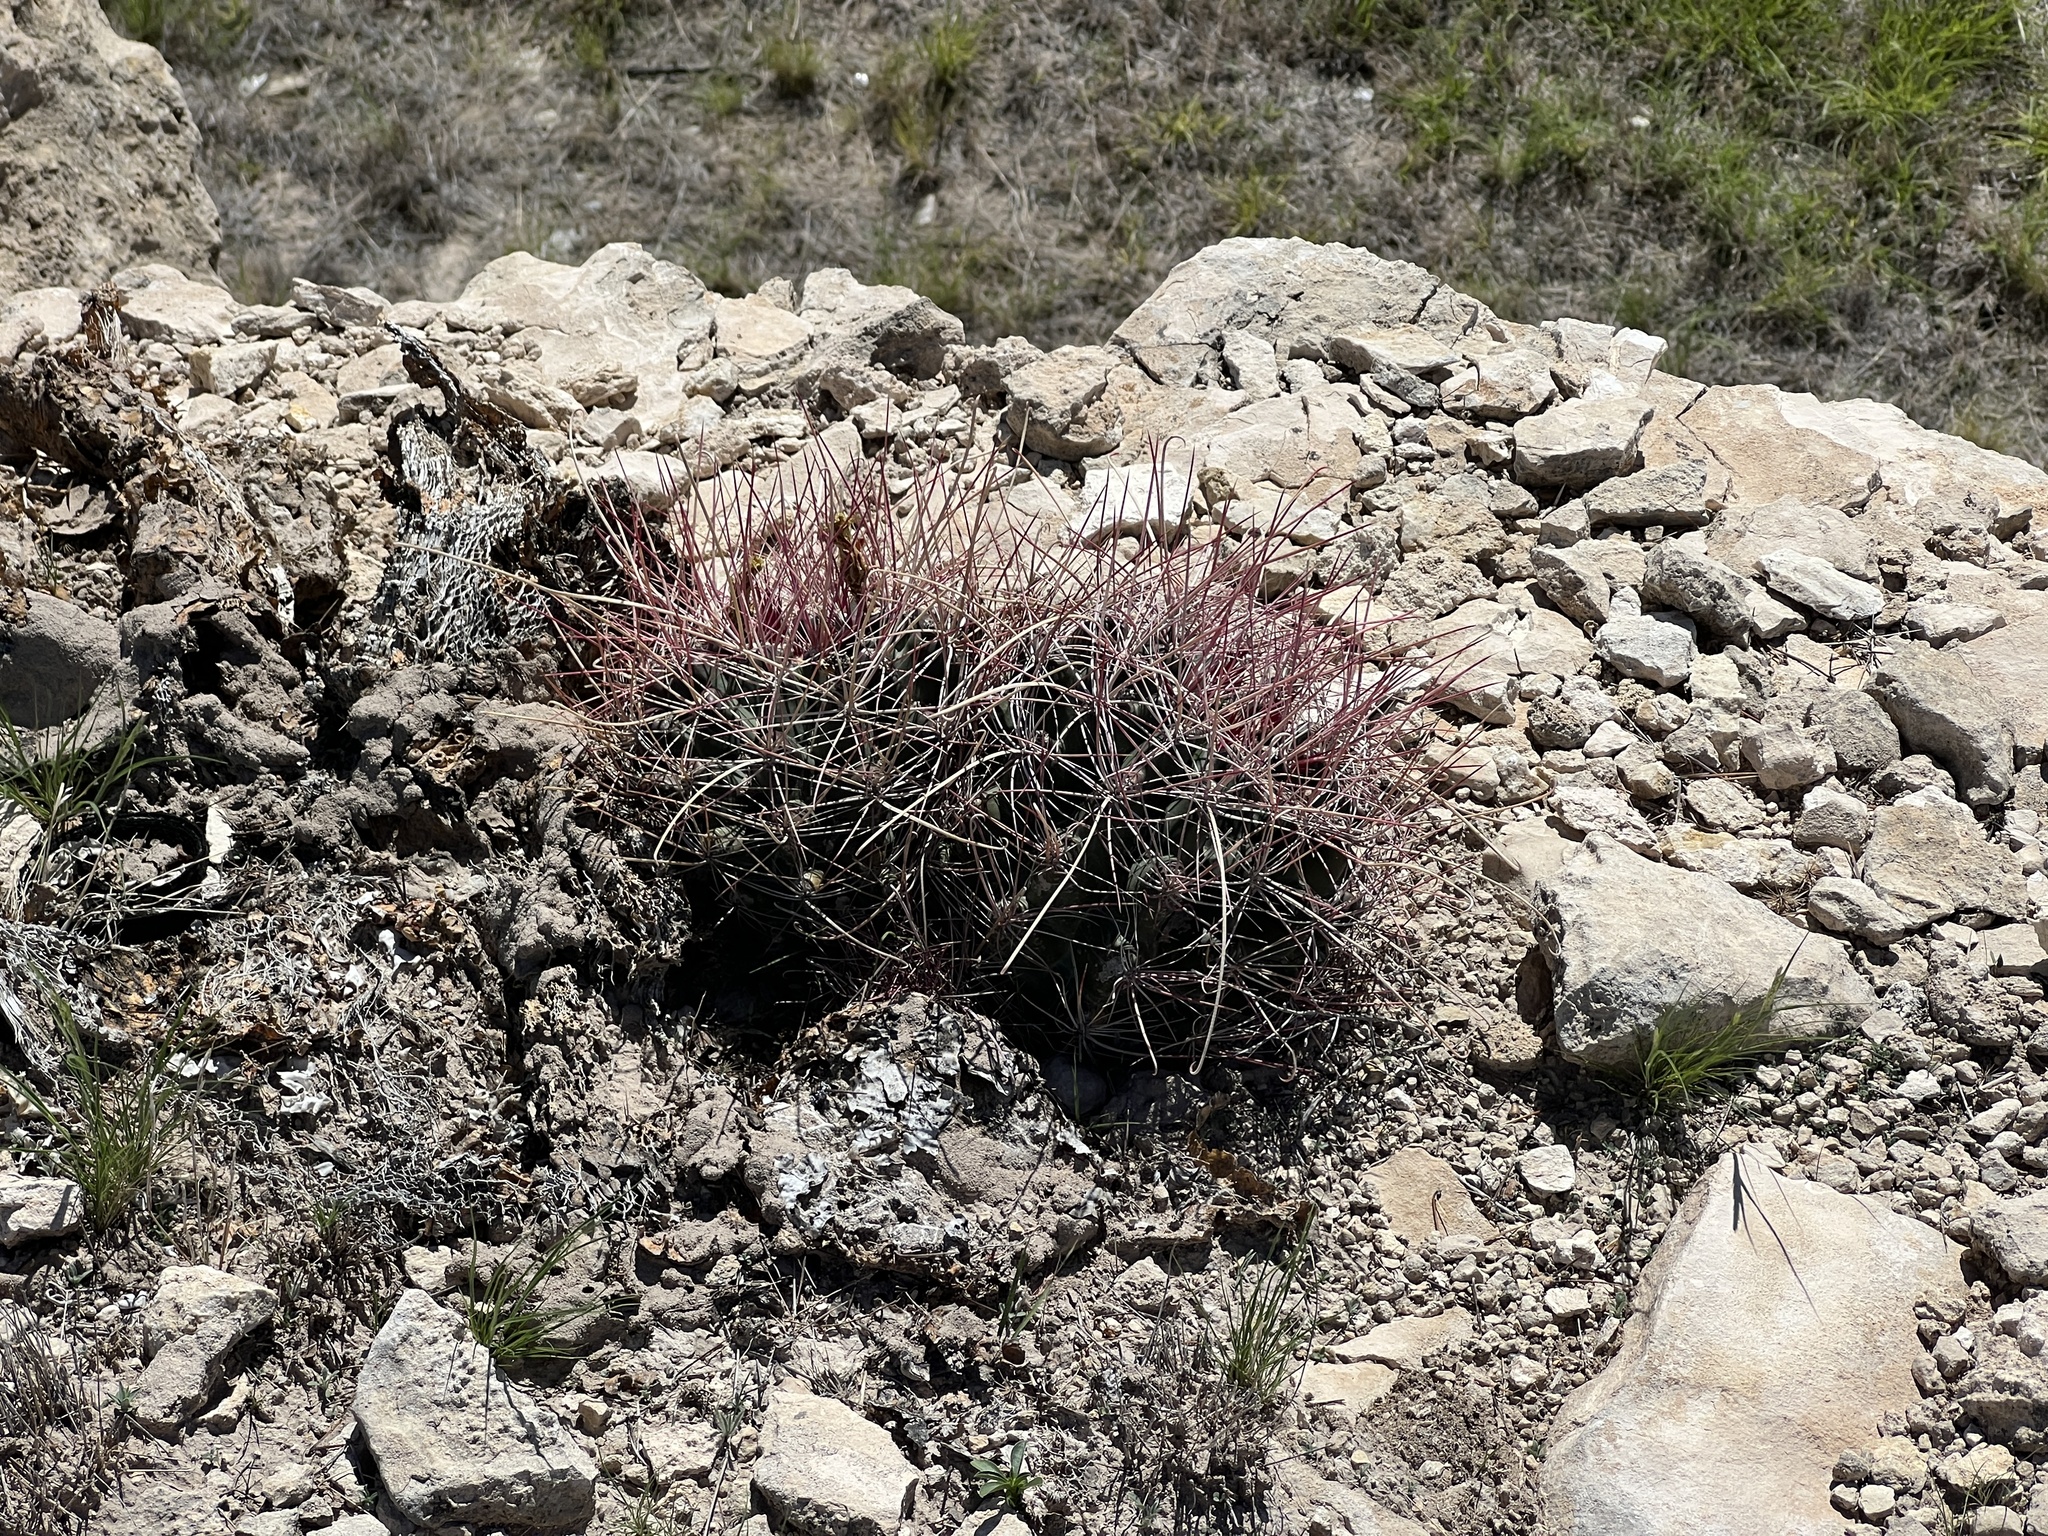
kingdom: Plantae
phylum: Tracheophyta
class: Magnoliopsida
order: Caryophyllales
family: Cactaceae
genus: Bisnaga
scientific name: Bisnaga hamatacantha
